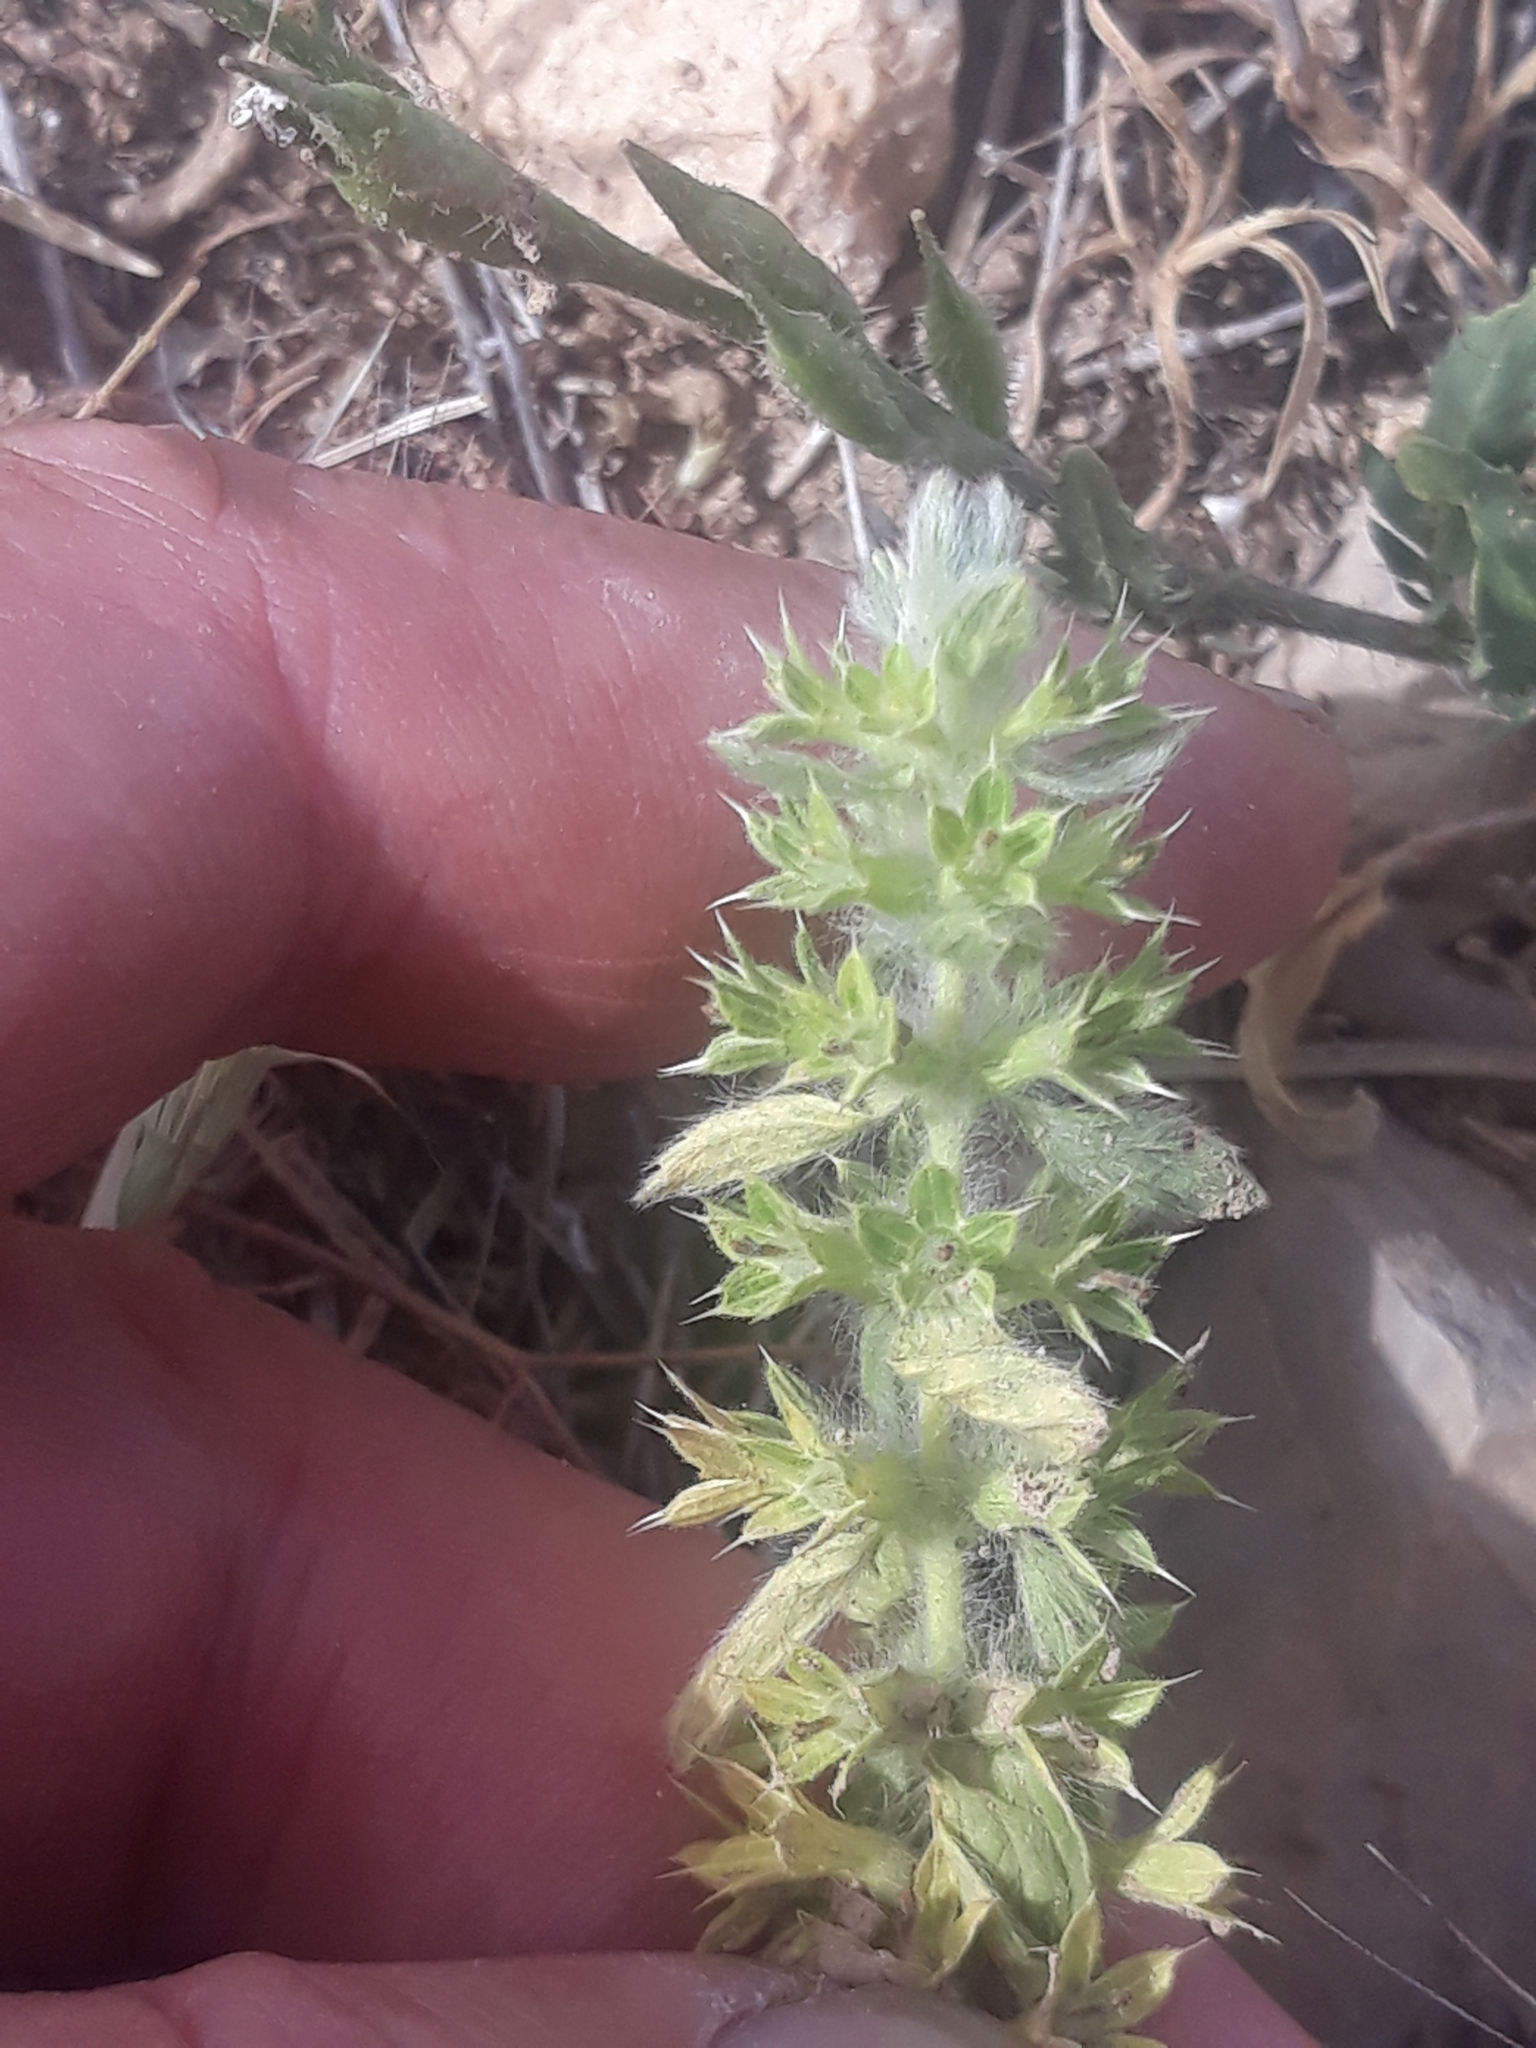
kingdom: Plantae
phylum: Tracheophyta
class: Magnoliopsida
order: Lamiales
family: Lamiaceae
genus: Sideritis
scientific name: Sideritis montana
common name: Mountain ironwort
